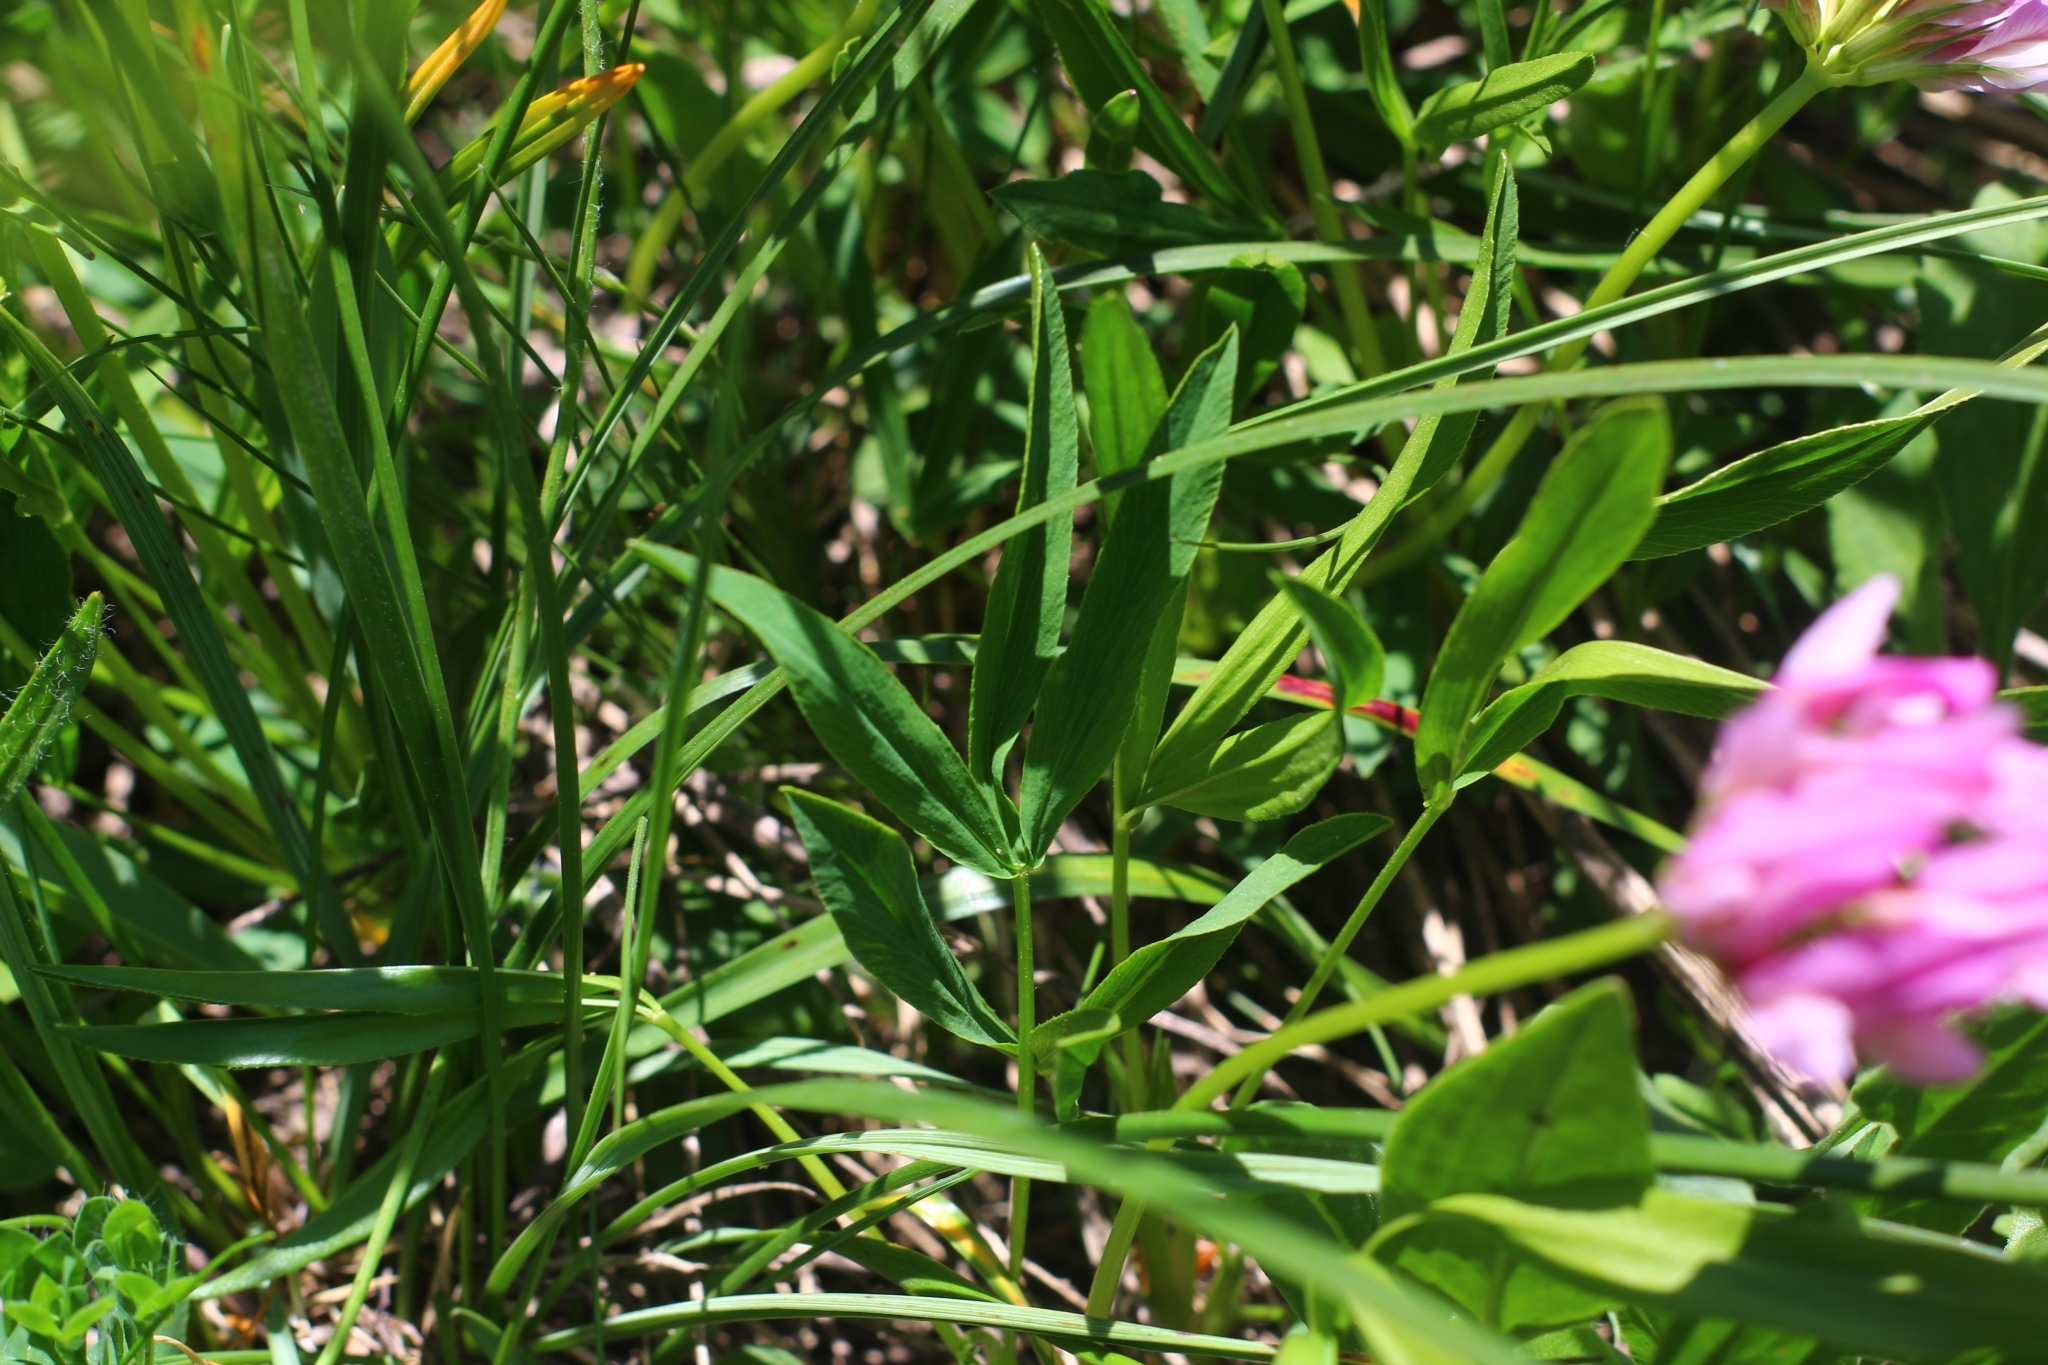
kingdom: Plantae
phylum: Tracheophyta
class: Magnoliopsida
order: Fabales
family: Fabaceae
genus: Trifolium
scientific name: Trifolium alpinum
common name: Alpine clover
